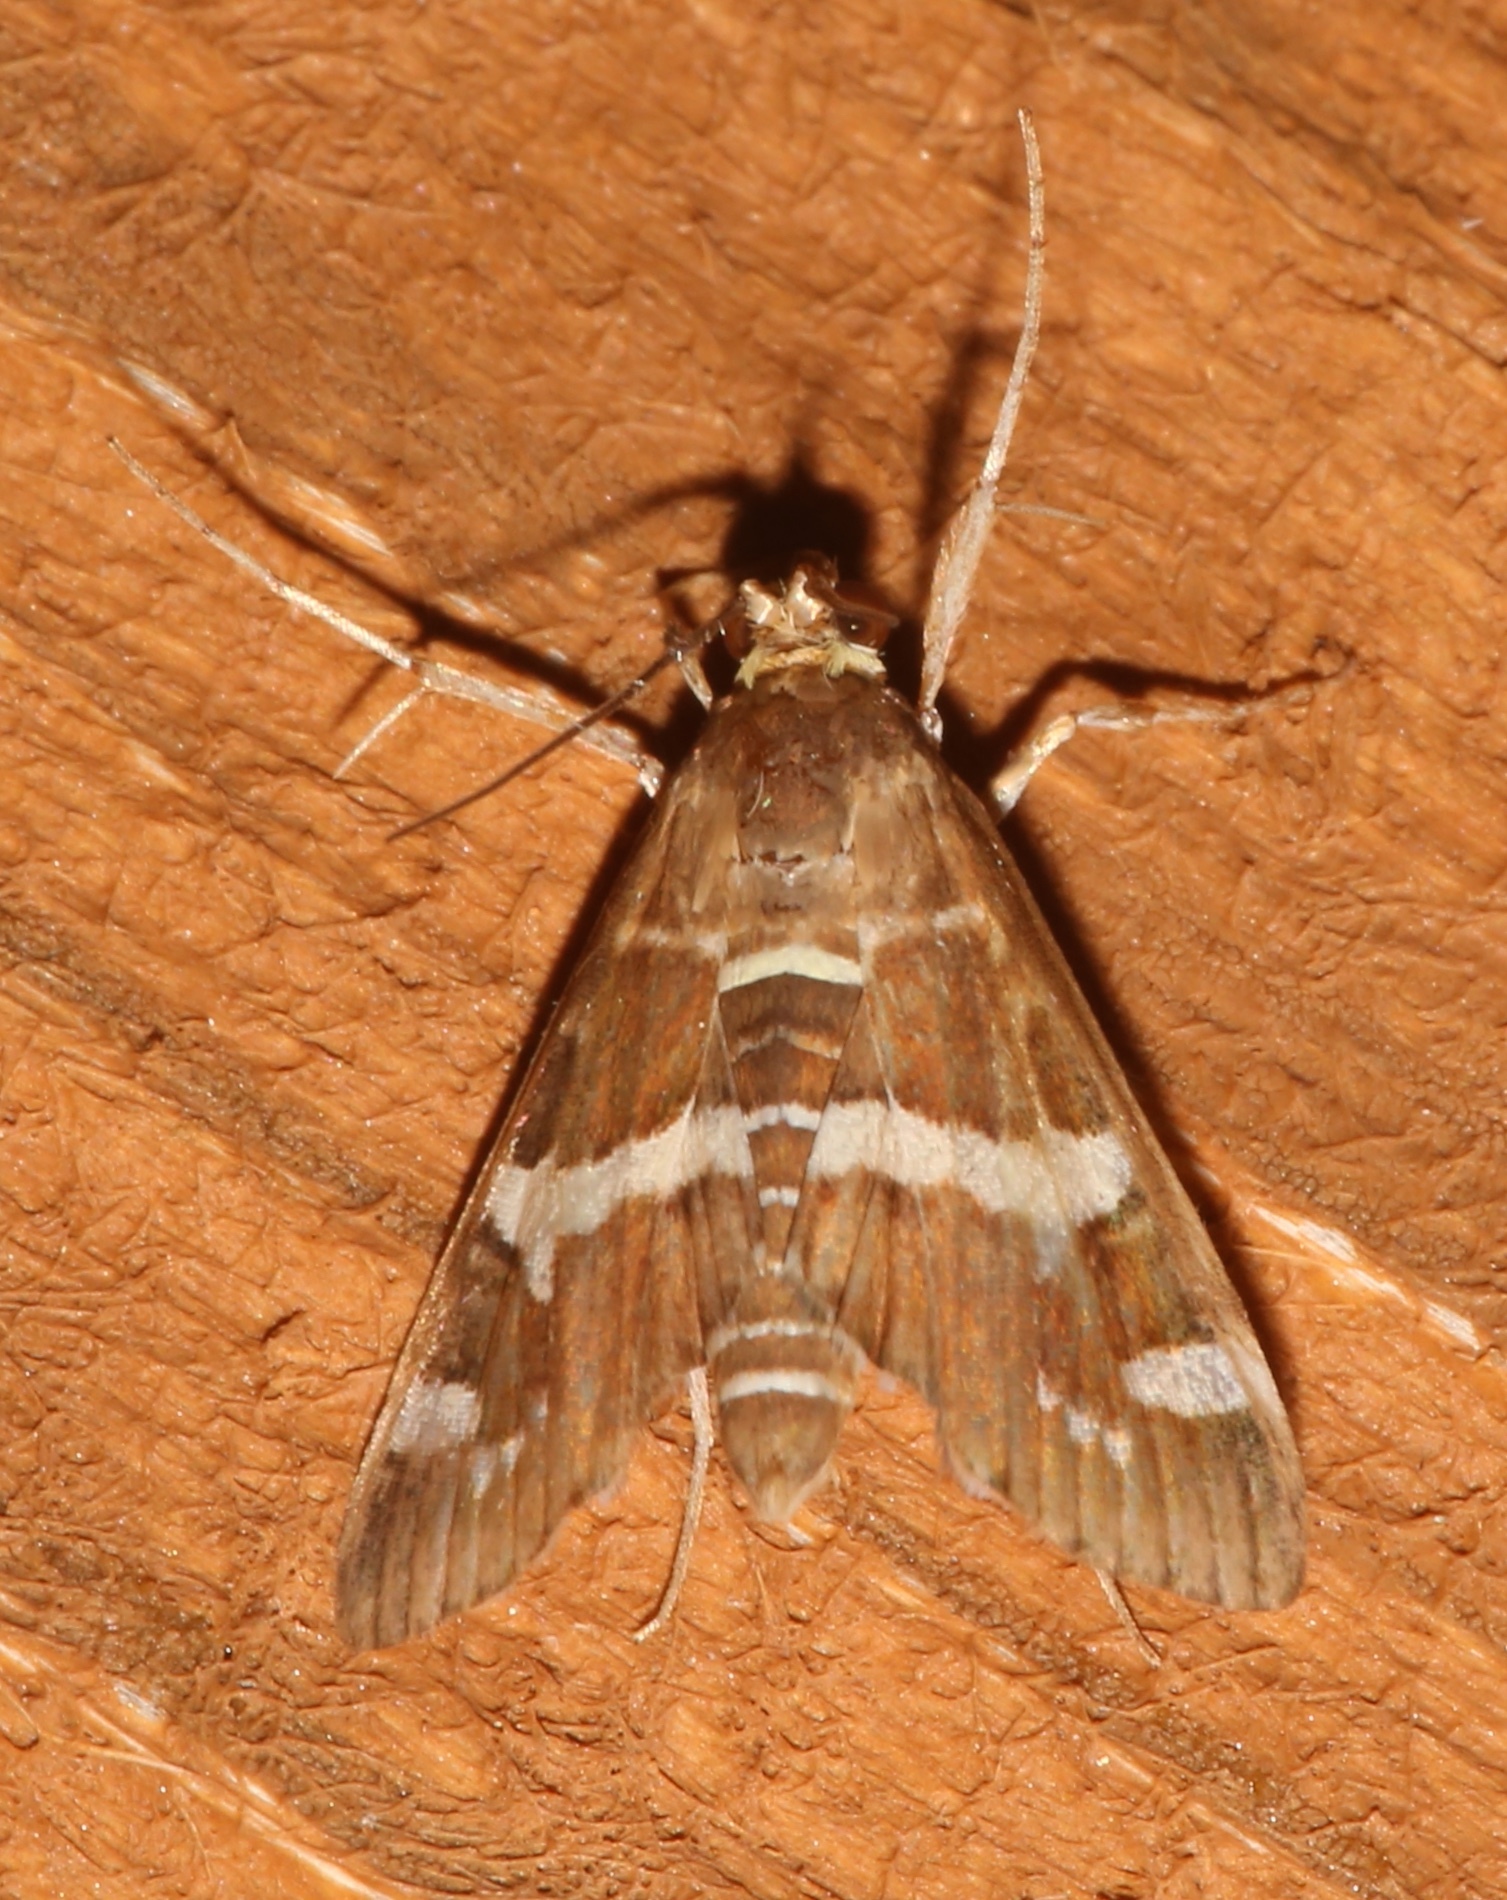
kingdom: Animalia
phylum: Arthropoda
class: Insecta
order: Lepidoptera
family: Crambidae
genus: Spoladea
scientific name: Spoladea recurvalis
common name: Beet webworm moth
